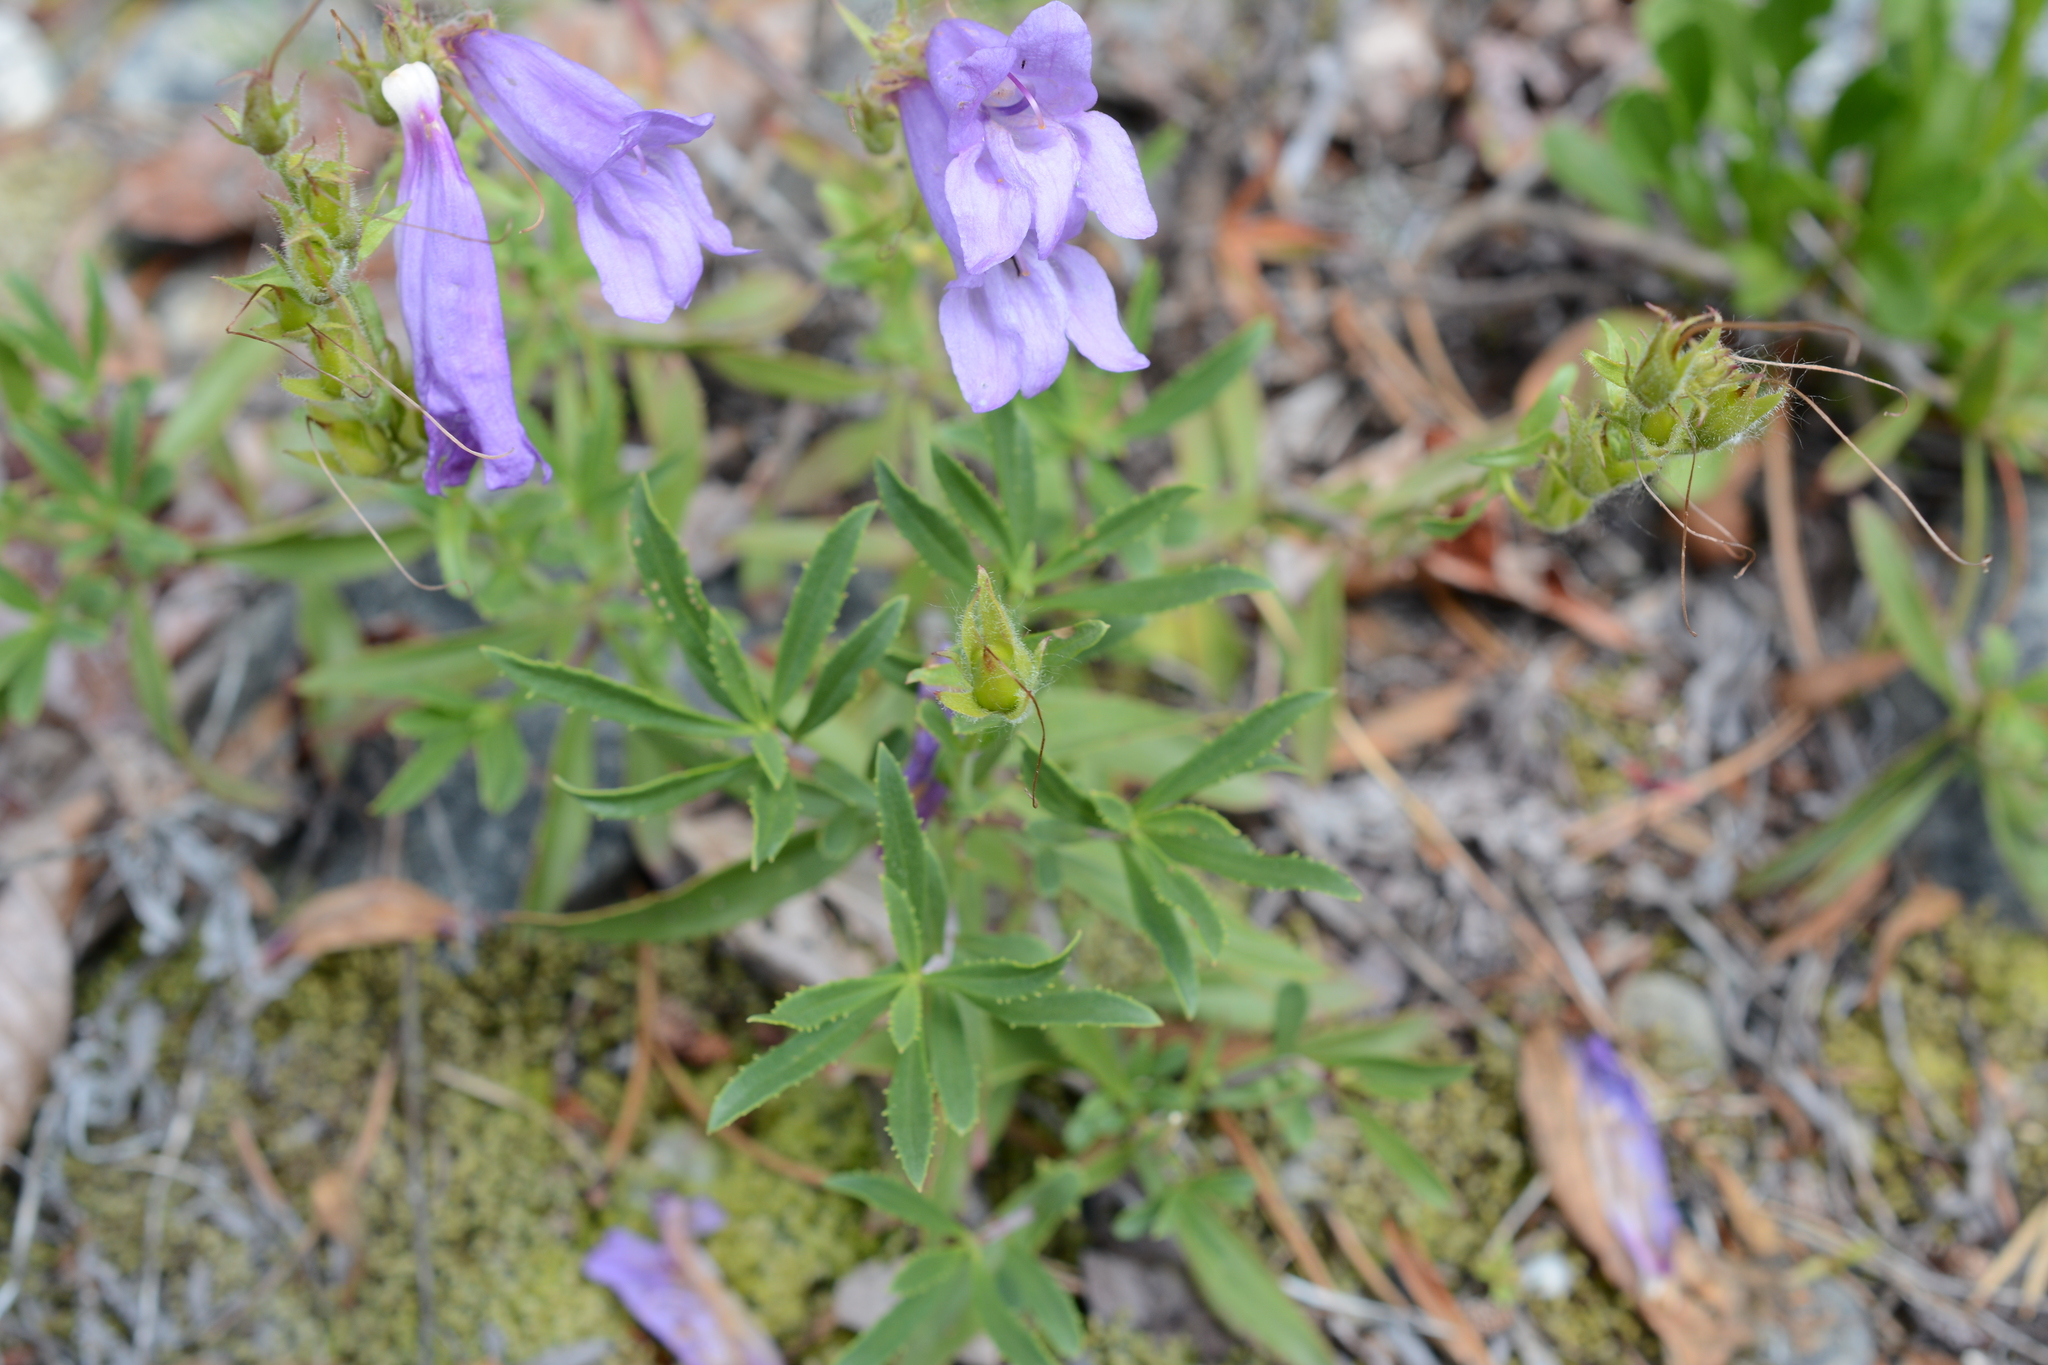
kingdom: Plantae
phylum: Tracheophyta
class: Magnoliopsida
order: Lamiales
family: Plantaginaceae
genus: Penstemon
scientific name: Penstemon fruticosus
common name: Bush penstemon
